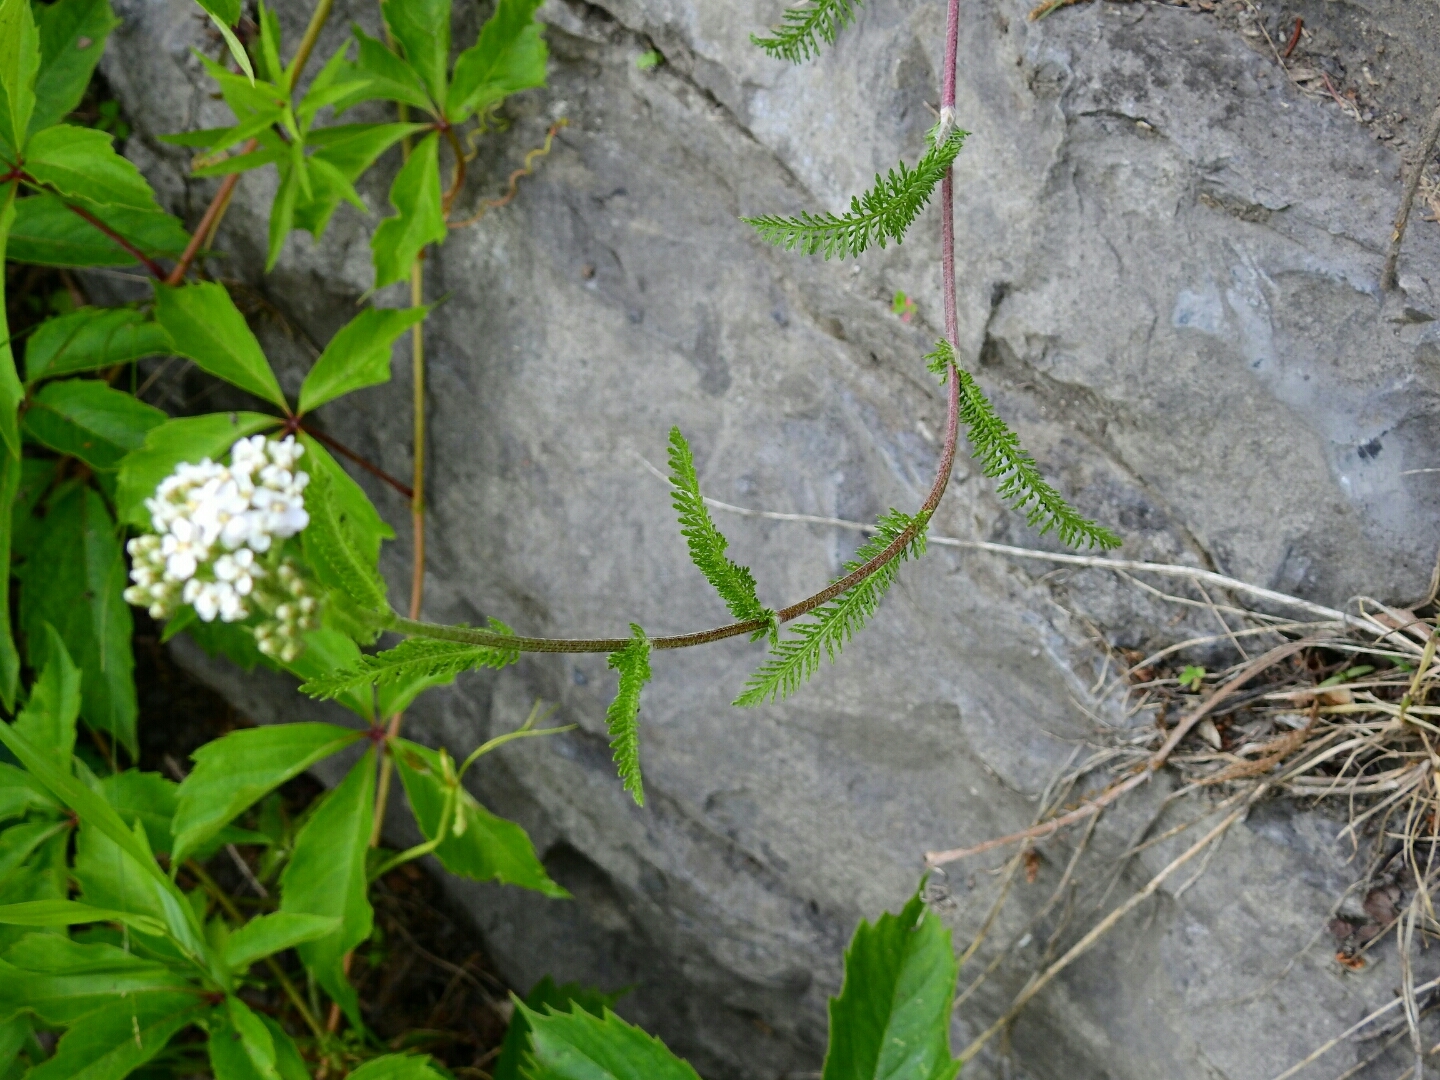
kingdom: Plantae
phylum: Tracheophyta
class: Magnoliopsida
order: Asterales
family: Asteraceae
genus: Achillea
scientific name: Achillea millefolium
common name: Yarrow
